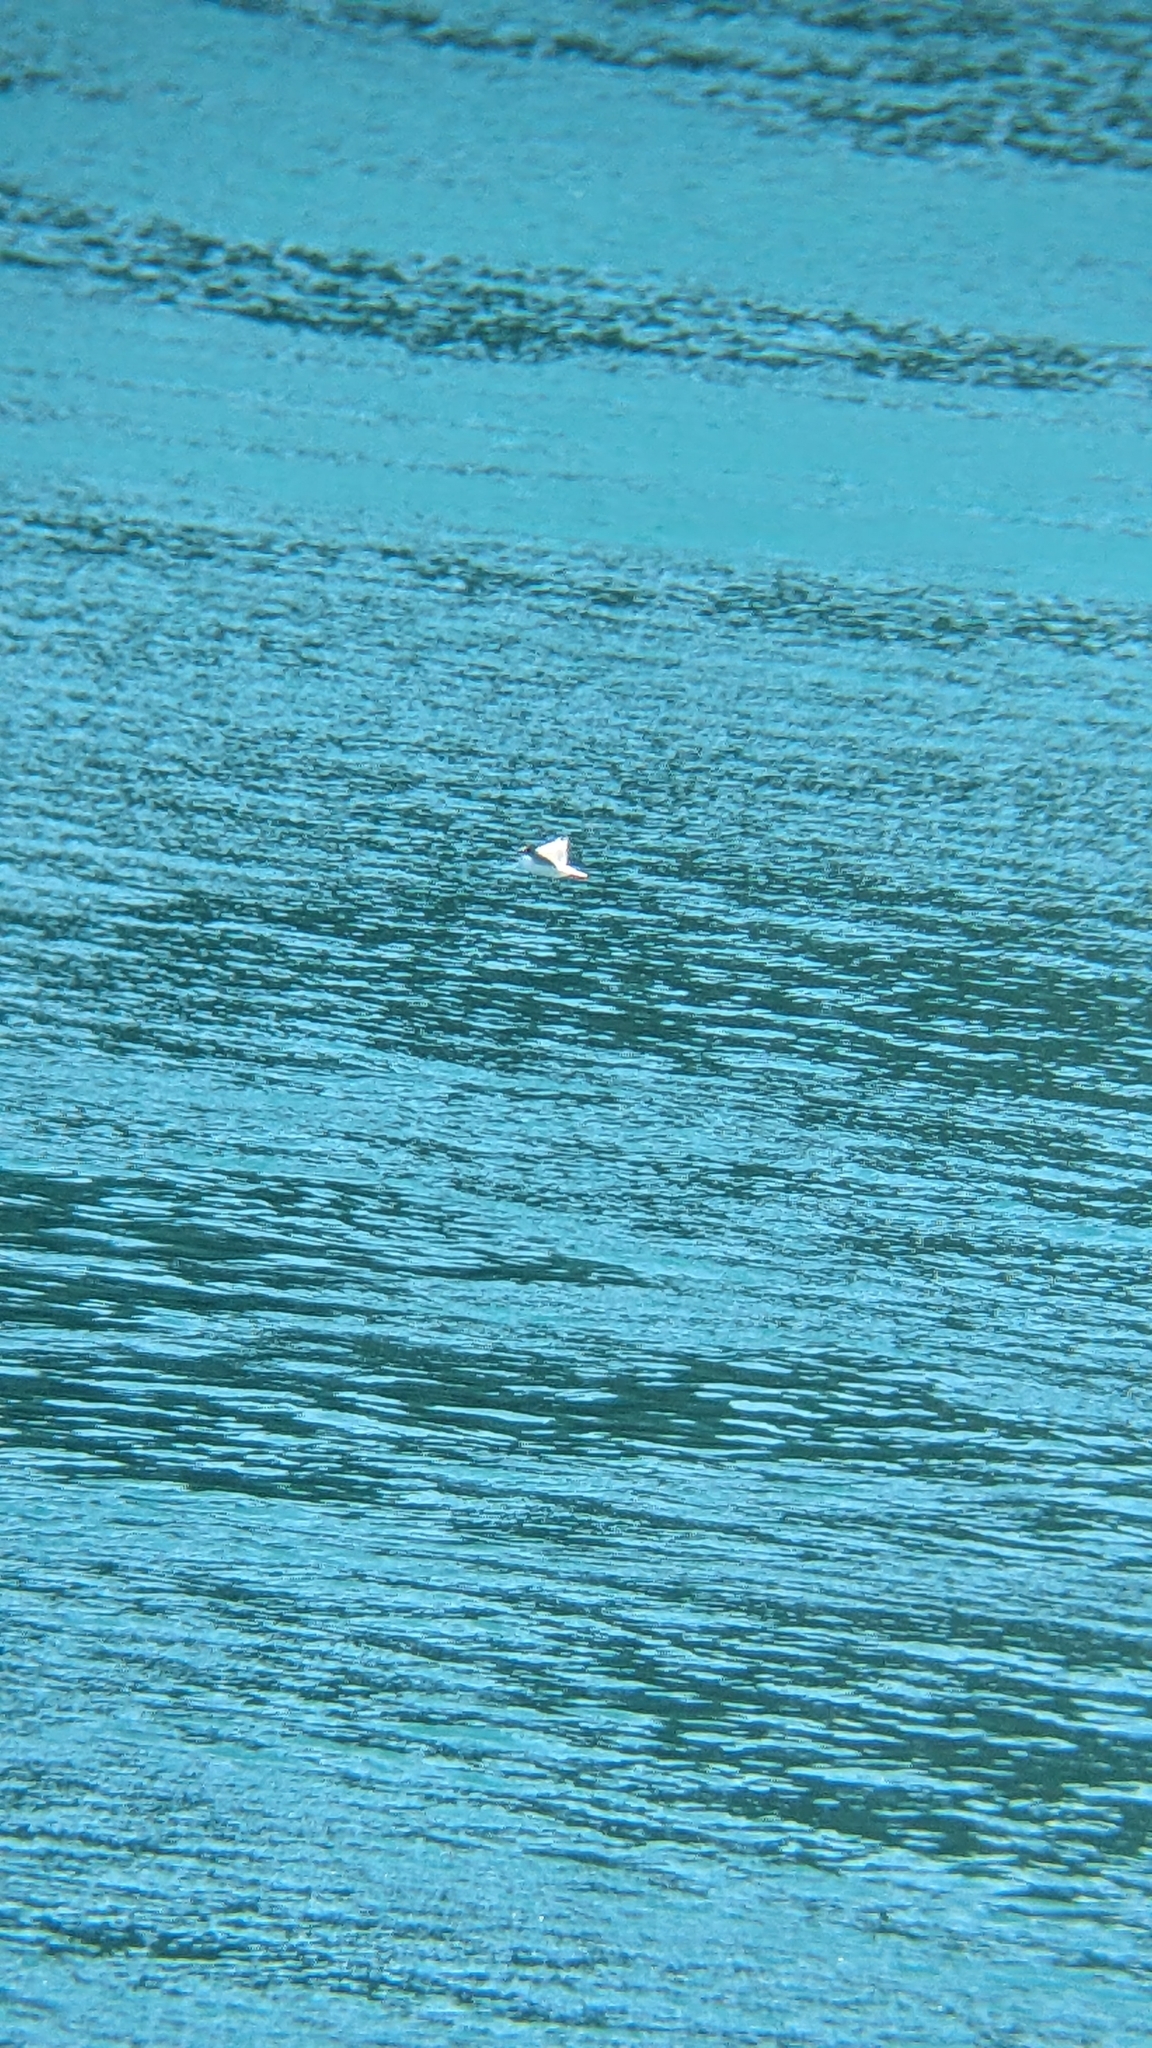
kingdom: Animalia
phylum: Chordata
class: Aves
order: Charadriiformes
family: Laridae
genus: Chroicocephalus
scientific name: Chroicocephalus novaehollandiae
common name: Silver gull
